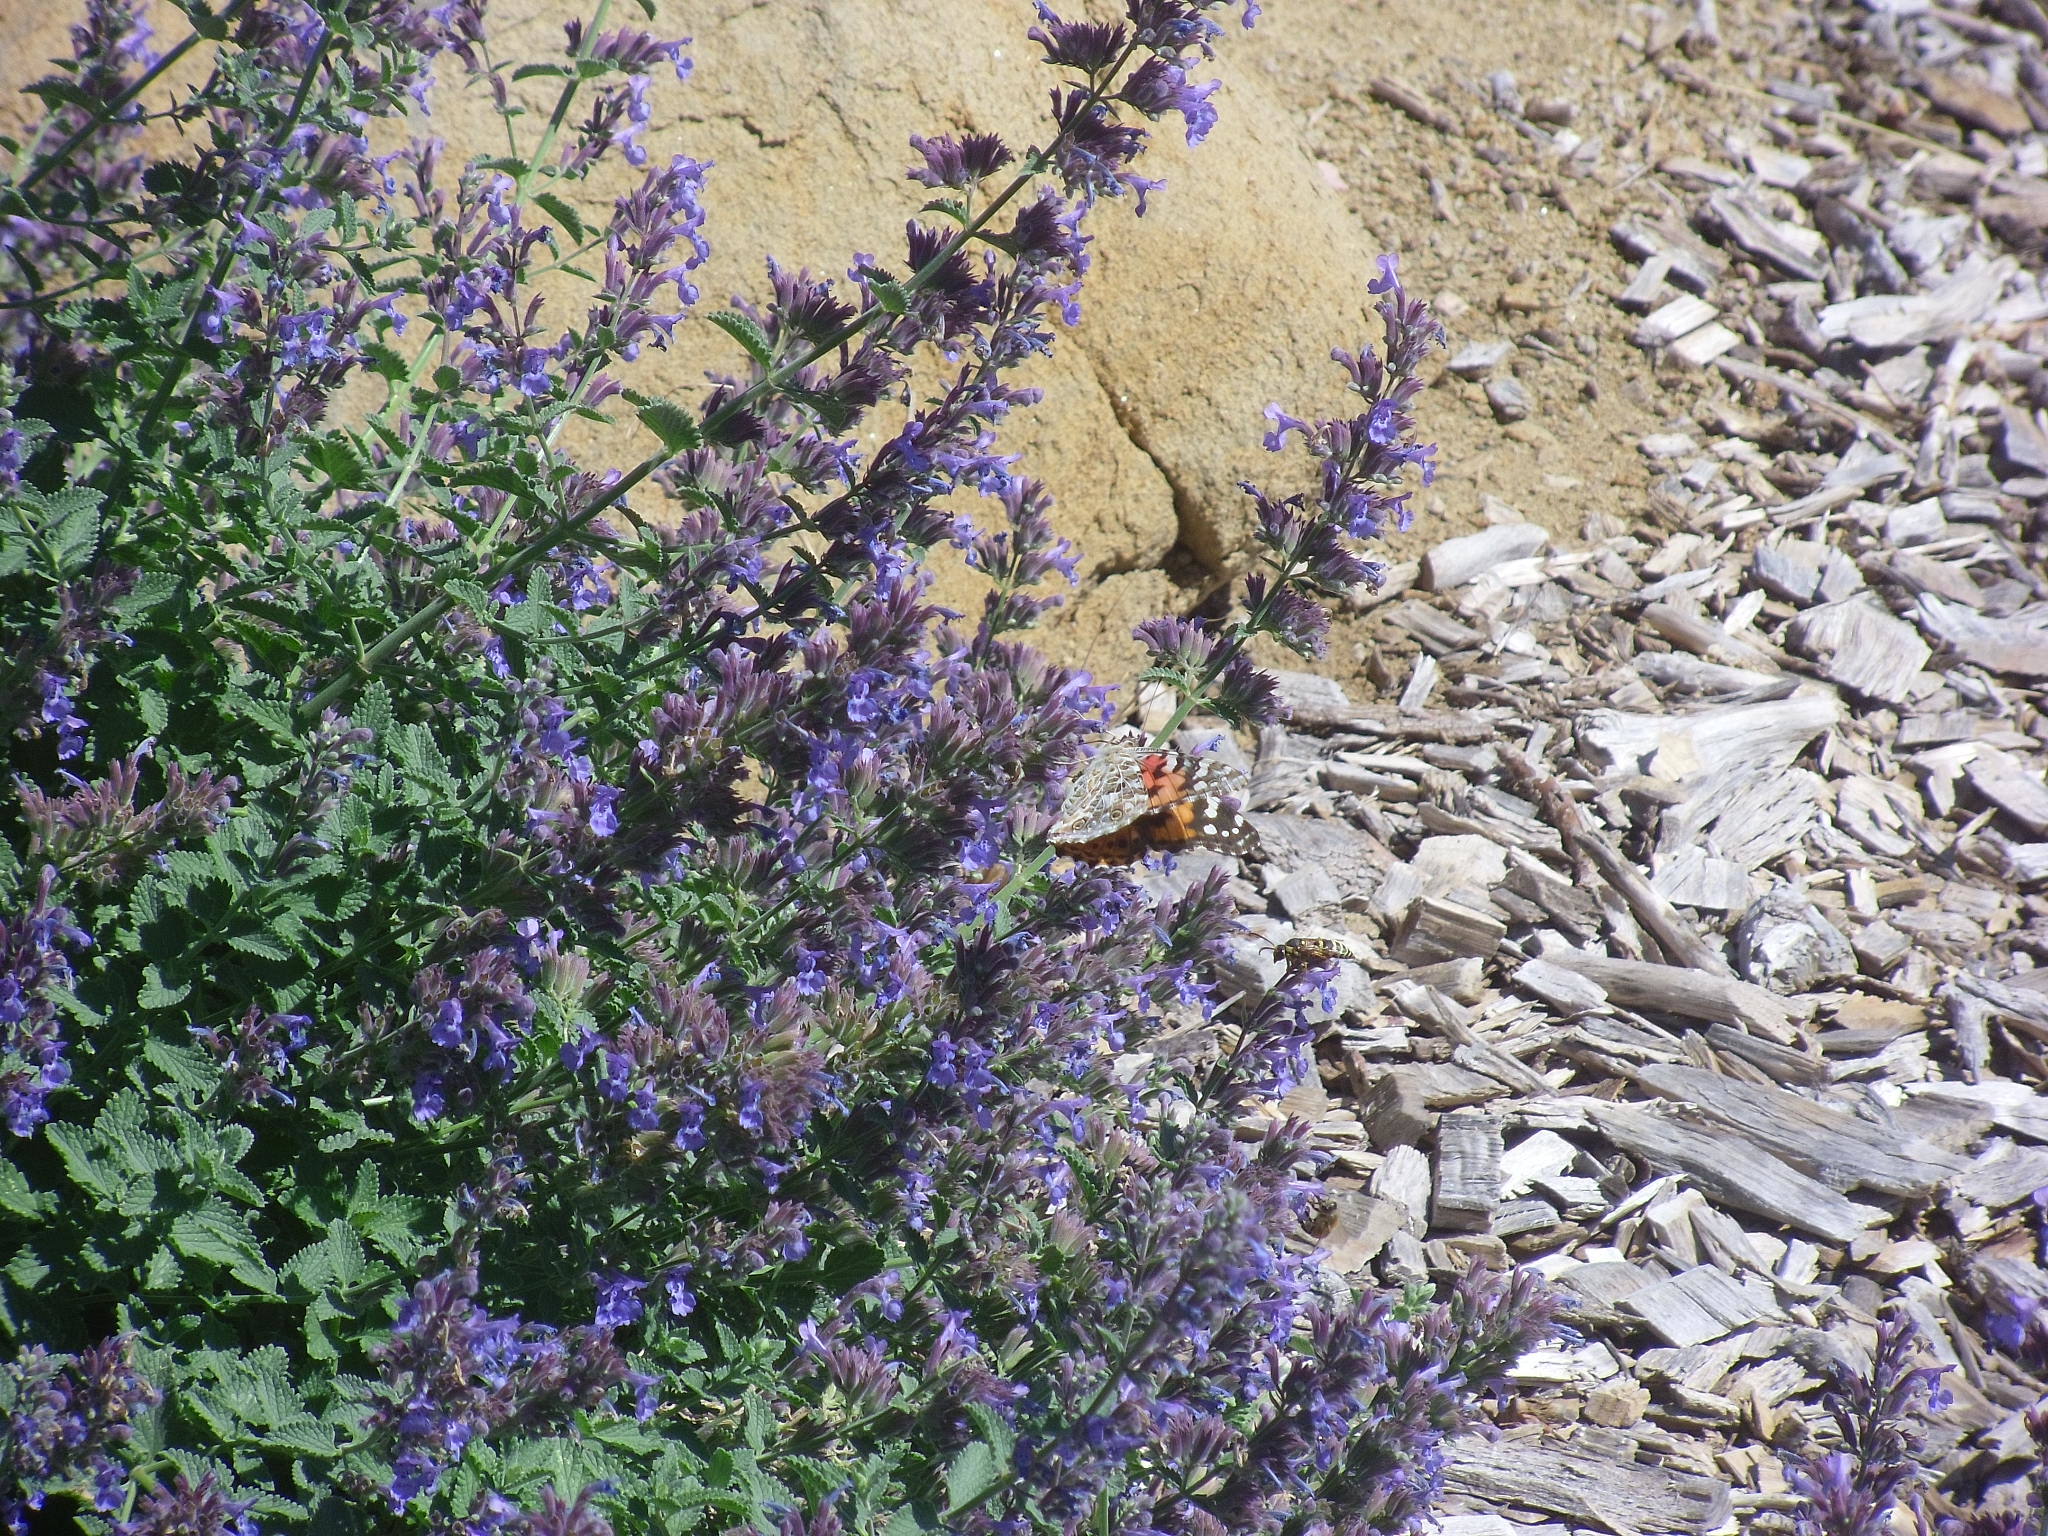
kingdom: Animalia
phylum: Arthropoda
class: Insecta
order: Lepidoptera
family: Nymphalidae
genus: Vanessa
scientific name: Vanessa cardui
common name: Painted lady
